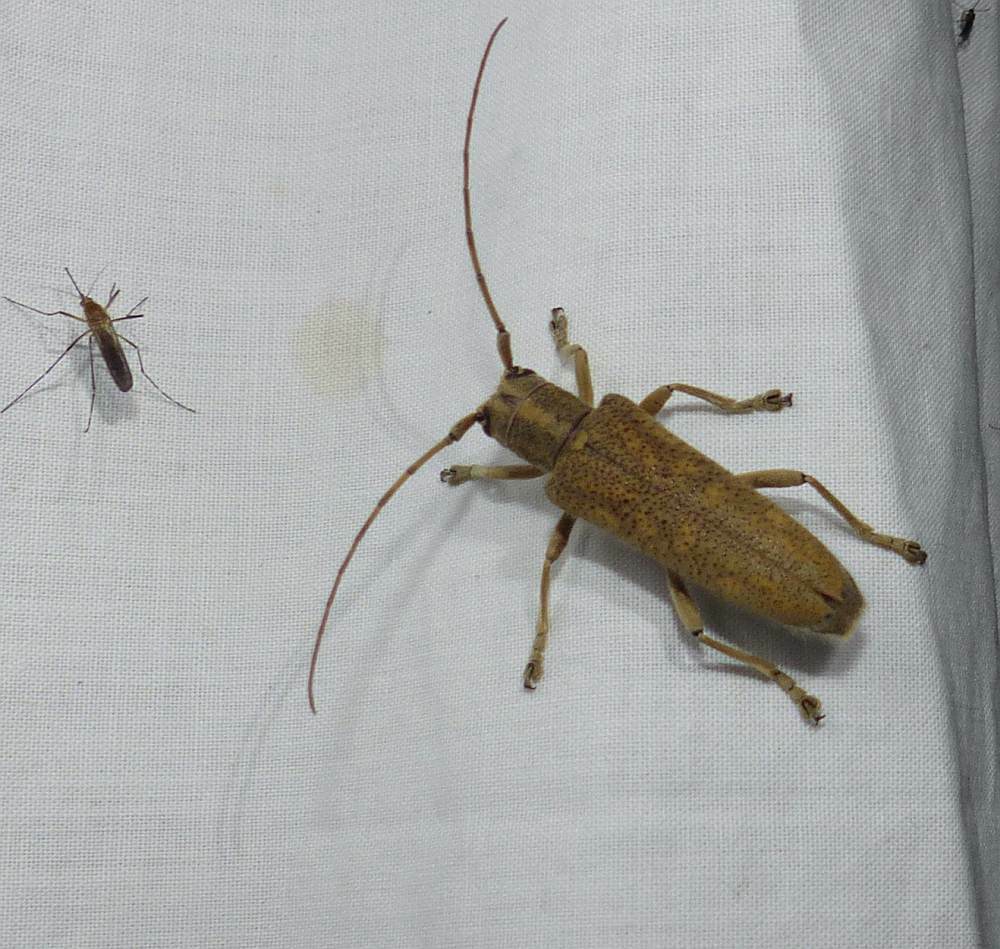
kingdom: Animalia
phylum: Arthropoda
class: Insecta
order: Coleoptera
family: Cerambycidae
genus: Saperda
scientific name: Saperda calcarata
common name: Poplar borer
